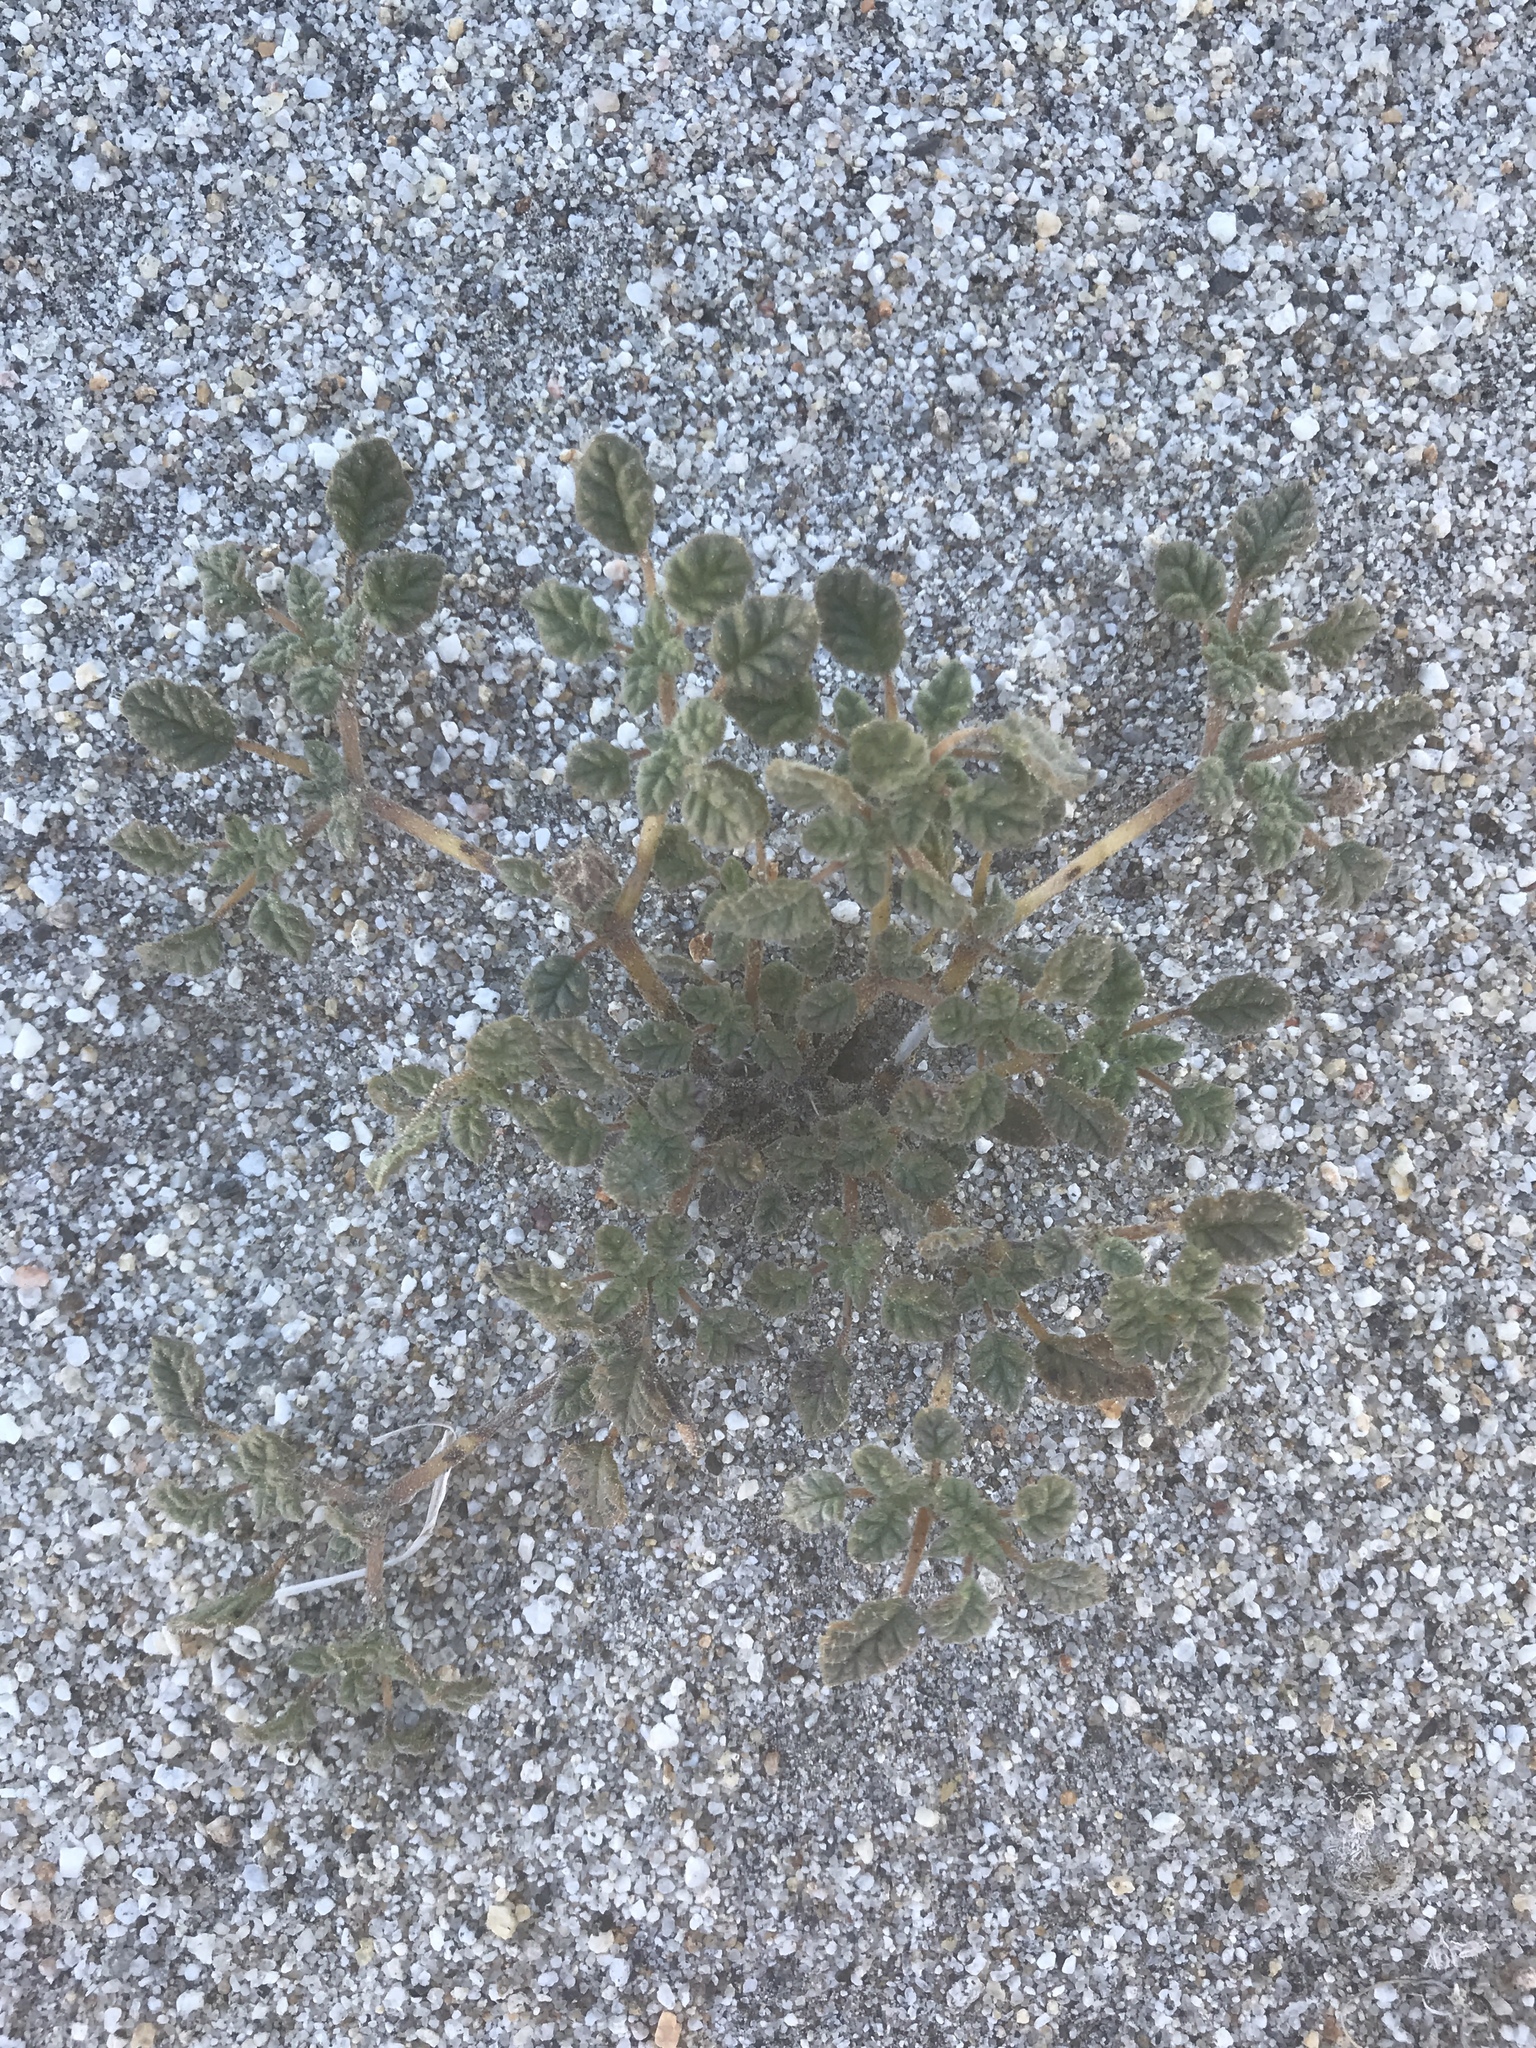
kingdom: Plantae
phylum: Tracheophyta
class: Magnoliopsida
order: Boraginales
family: Ehretiaceae
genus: Tiquilia
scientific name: Tiquilia palmeri
